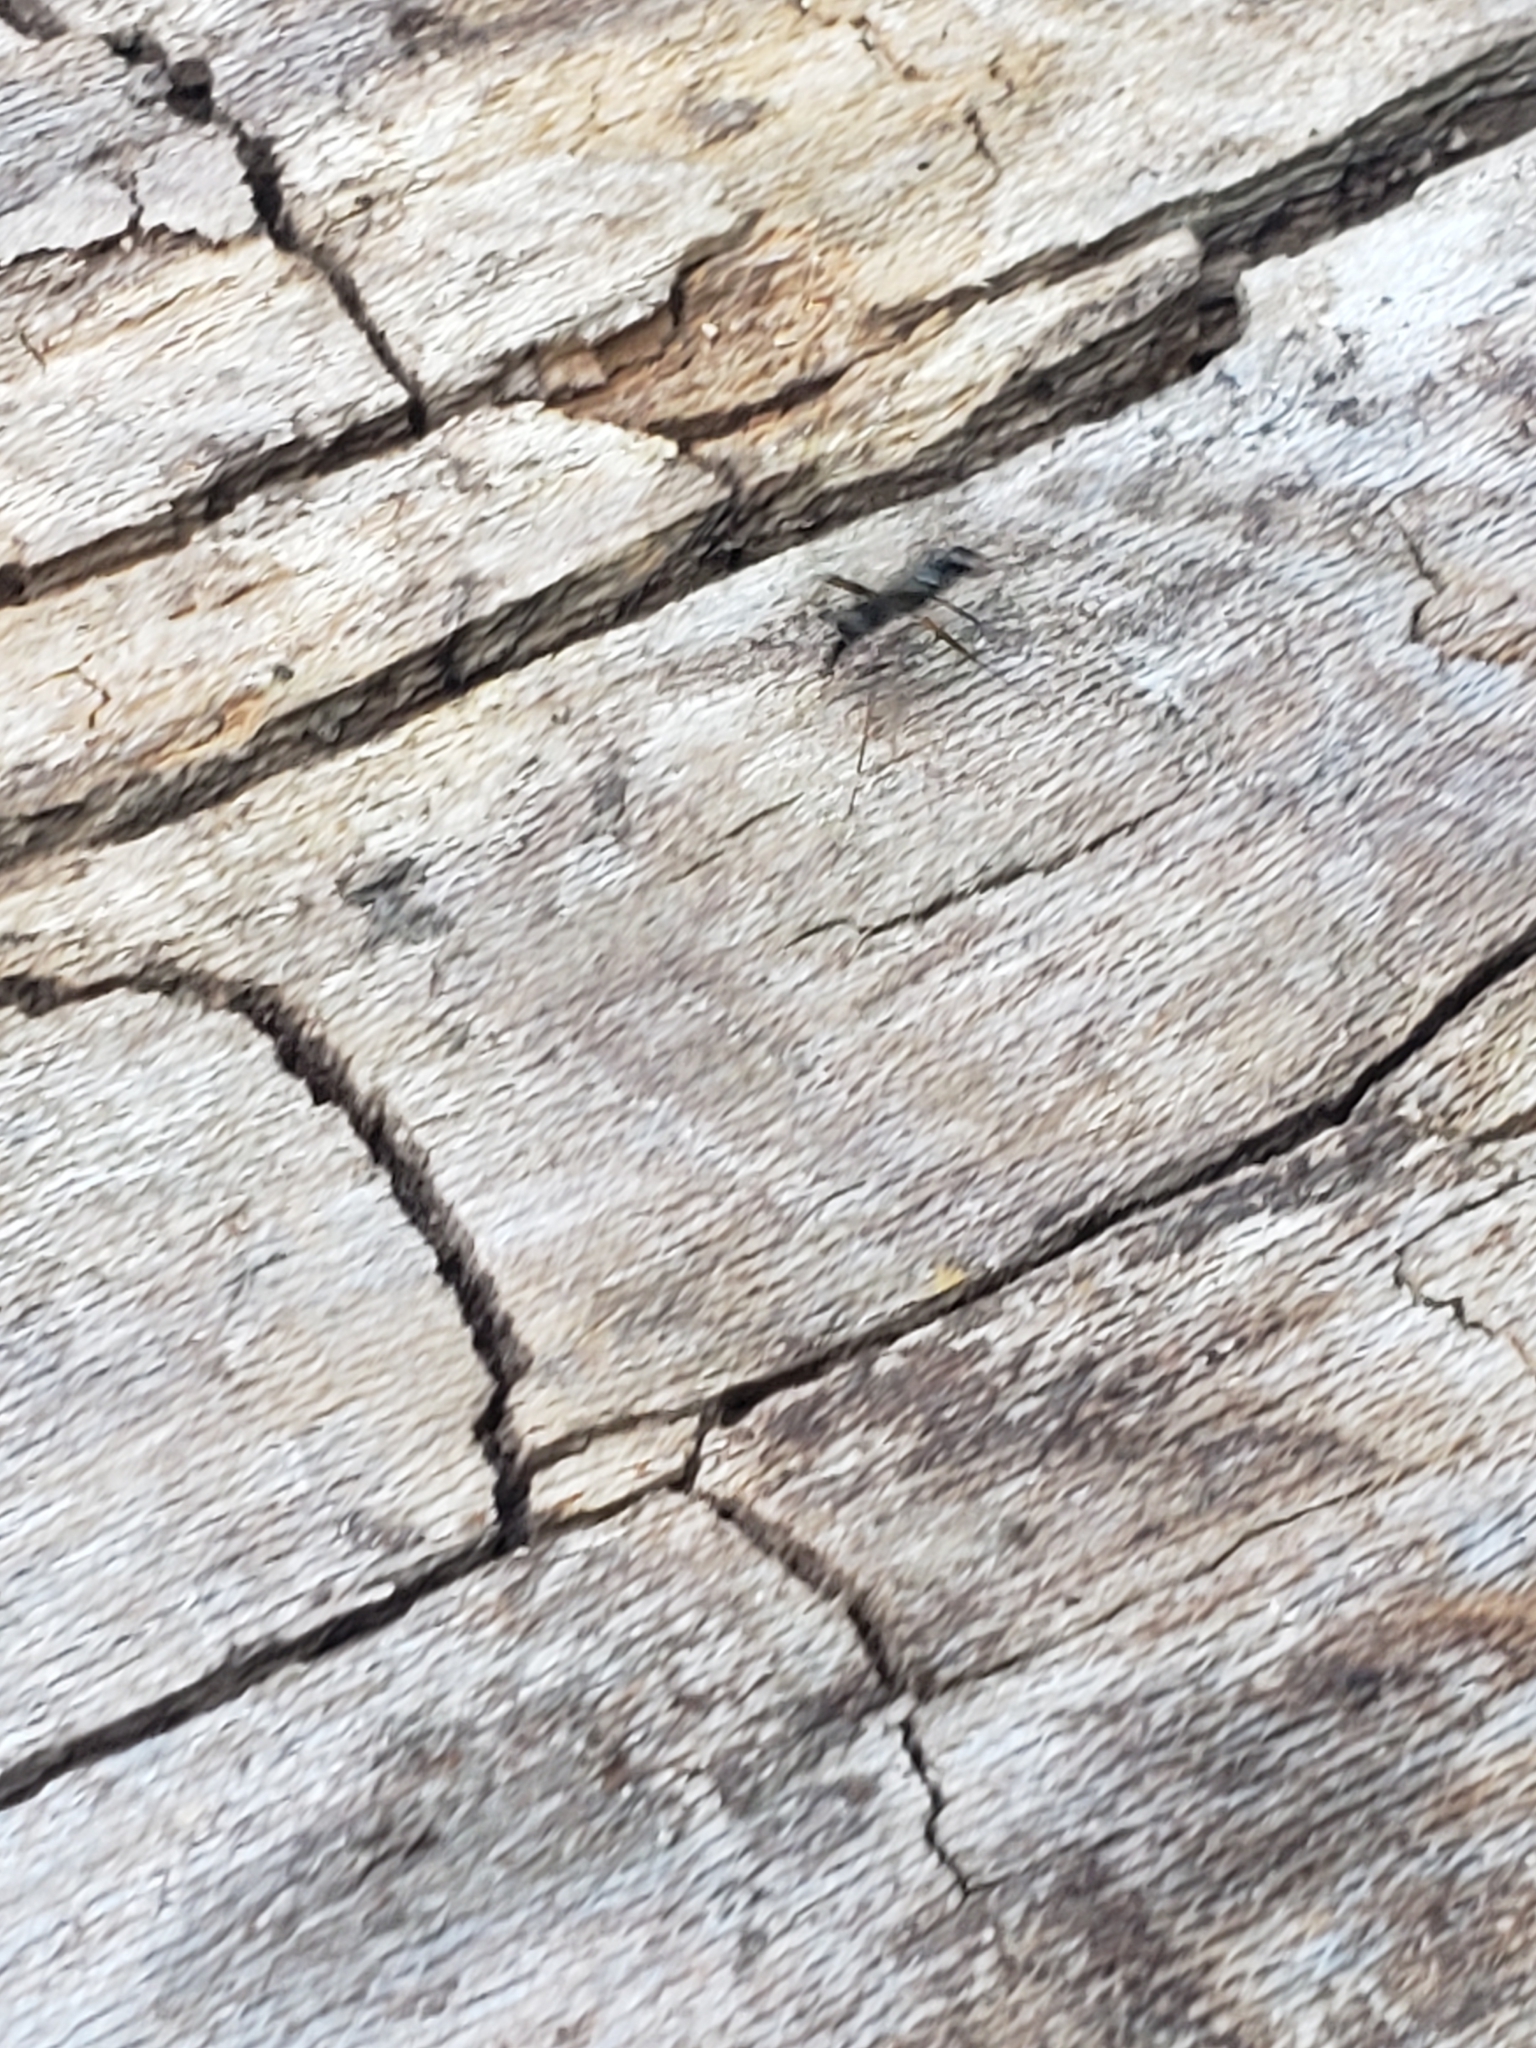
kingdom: Animalia
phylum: Arthropoda
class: Insecta
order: Diptera
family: Micropezidae
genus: Rainieria
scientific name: Rainieria antennaepes
